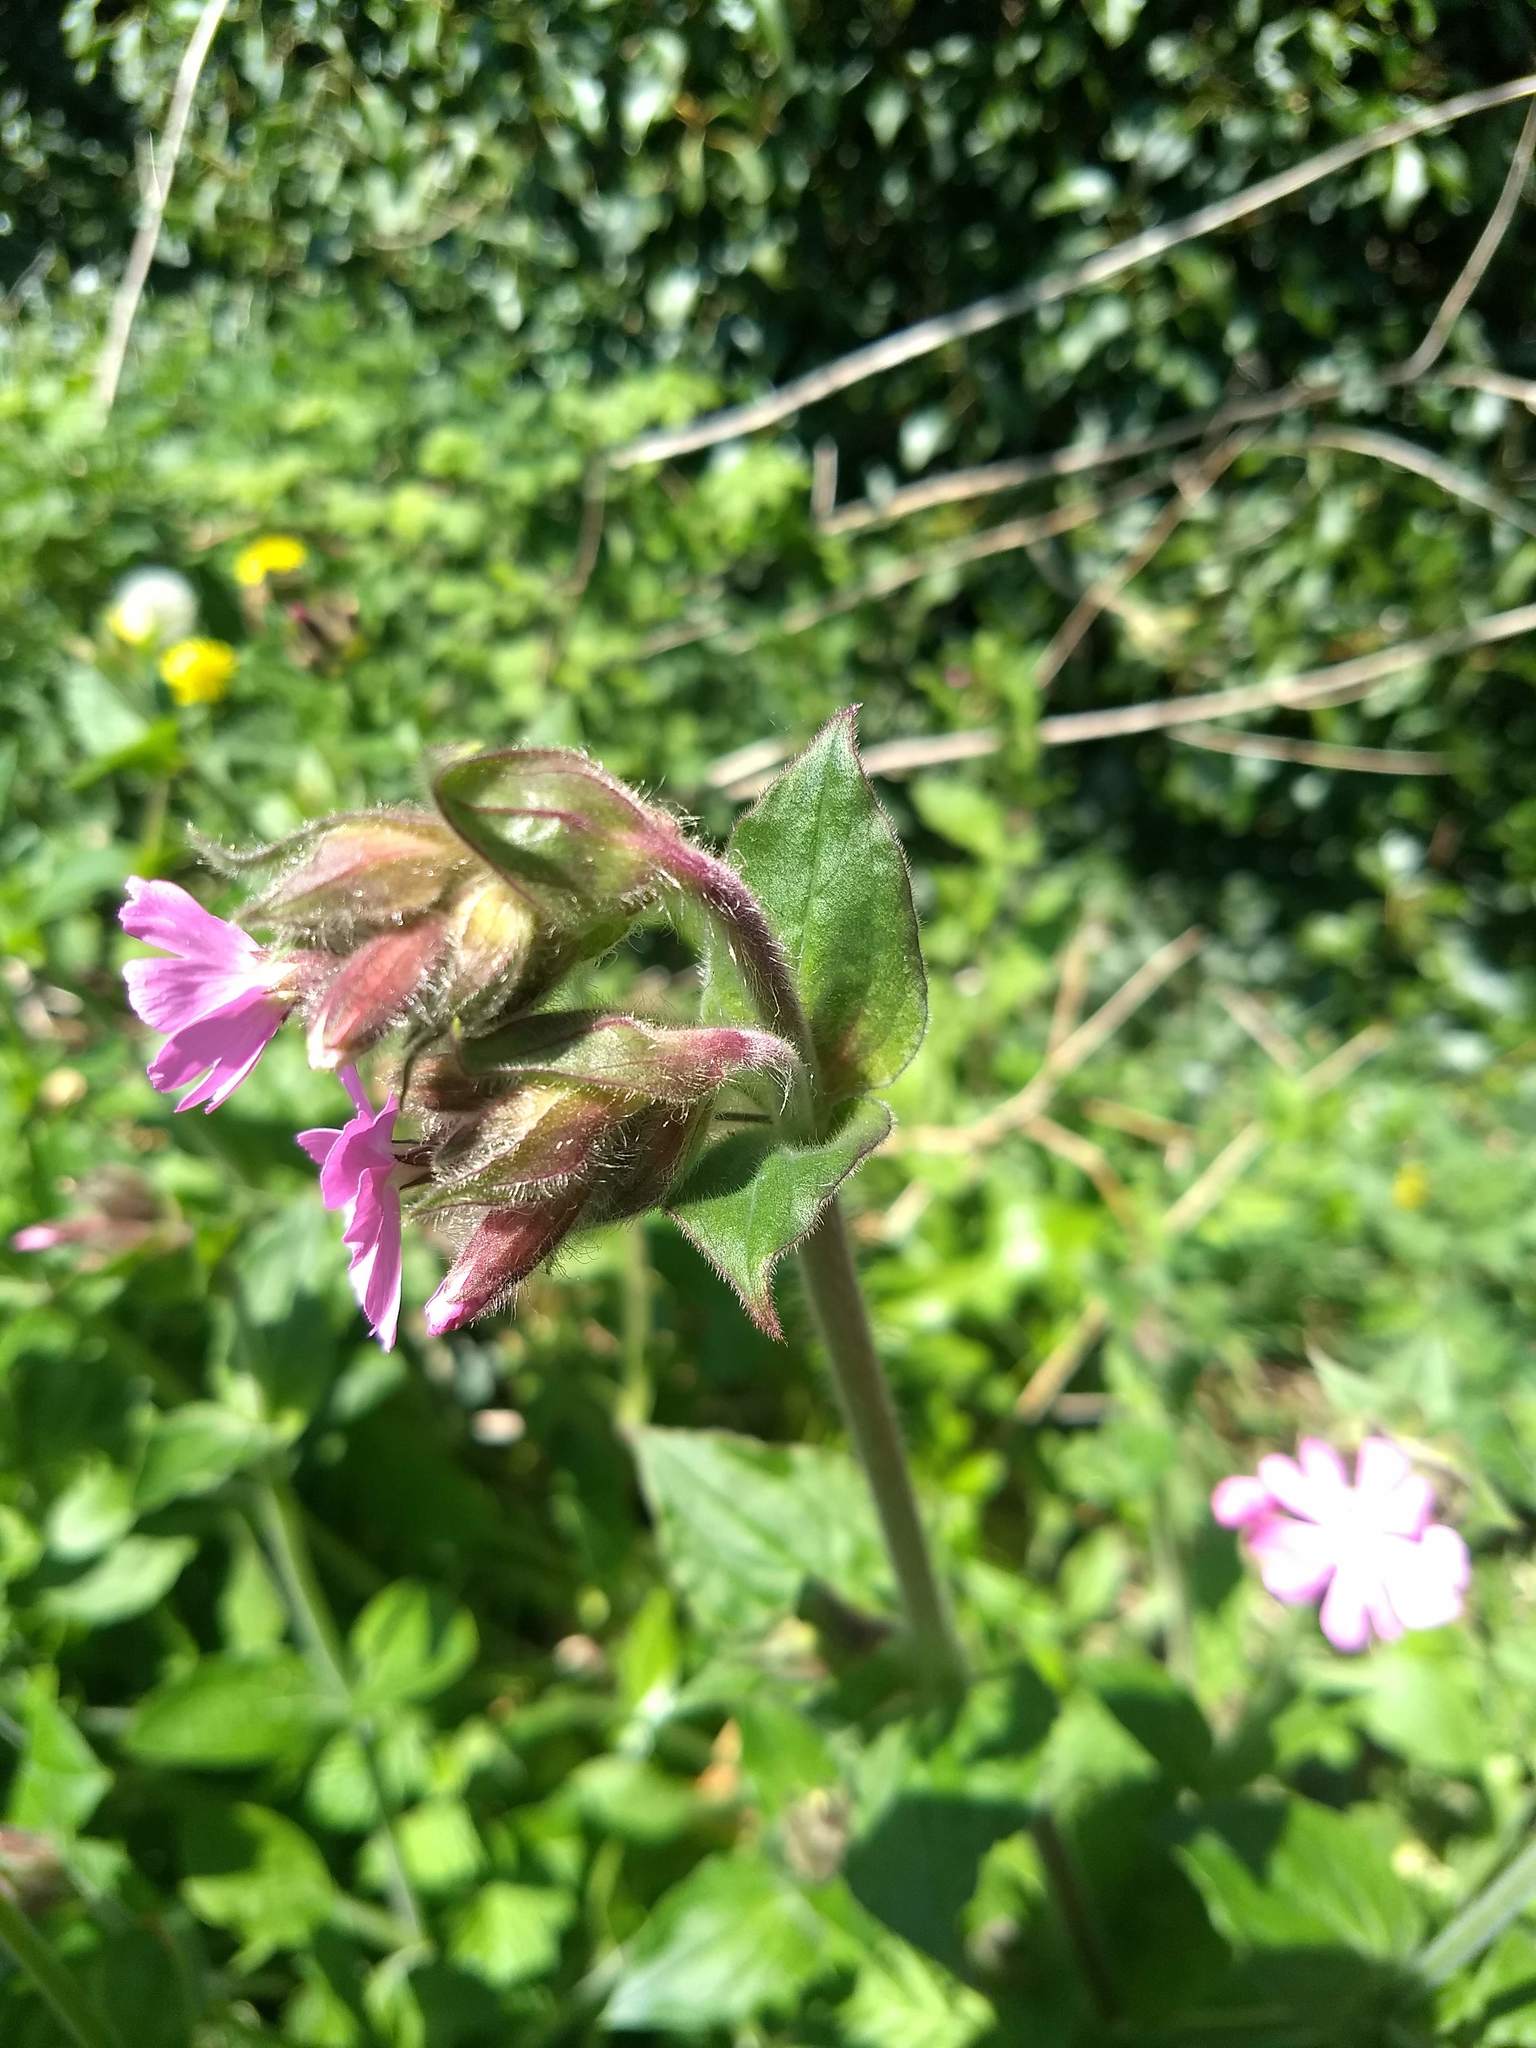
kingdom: Plantae
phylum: Tracheophyta
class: Magnoliopsida
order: Caryophyllales
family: Caryophyllaceae
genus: Silene
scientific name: Silene dioica
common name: Red campion
